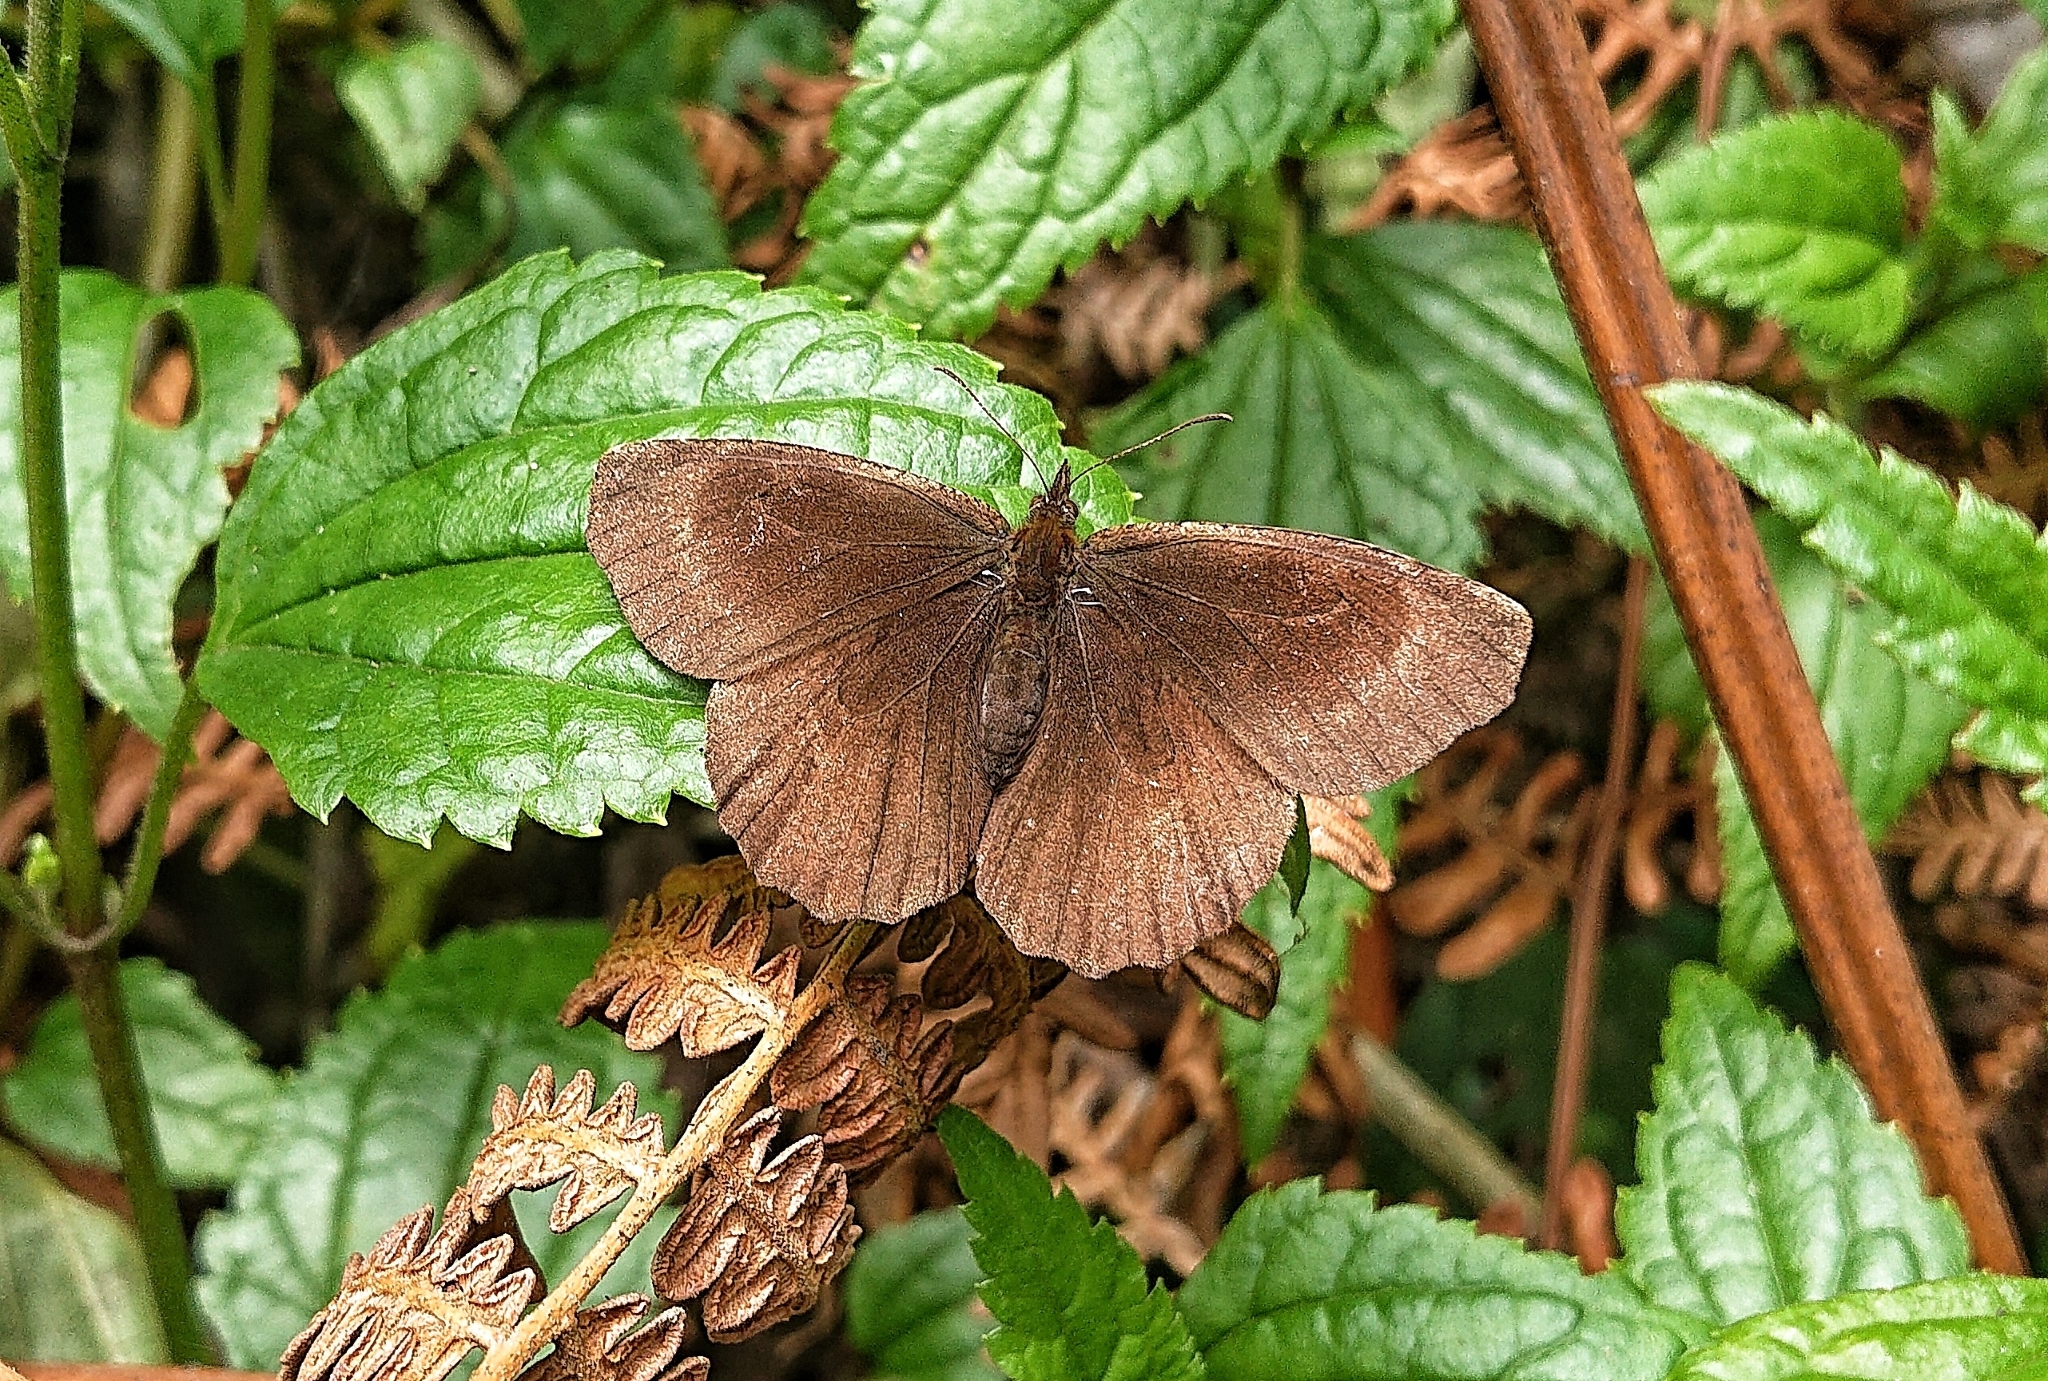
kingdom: Animalia
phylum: Arthropoda
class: Insecta
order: Lepidoptera
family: Nymphalidae
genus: Panyapedaliodes
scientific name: Panyapedaliodes drymaea
